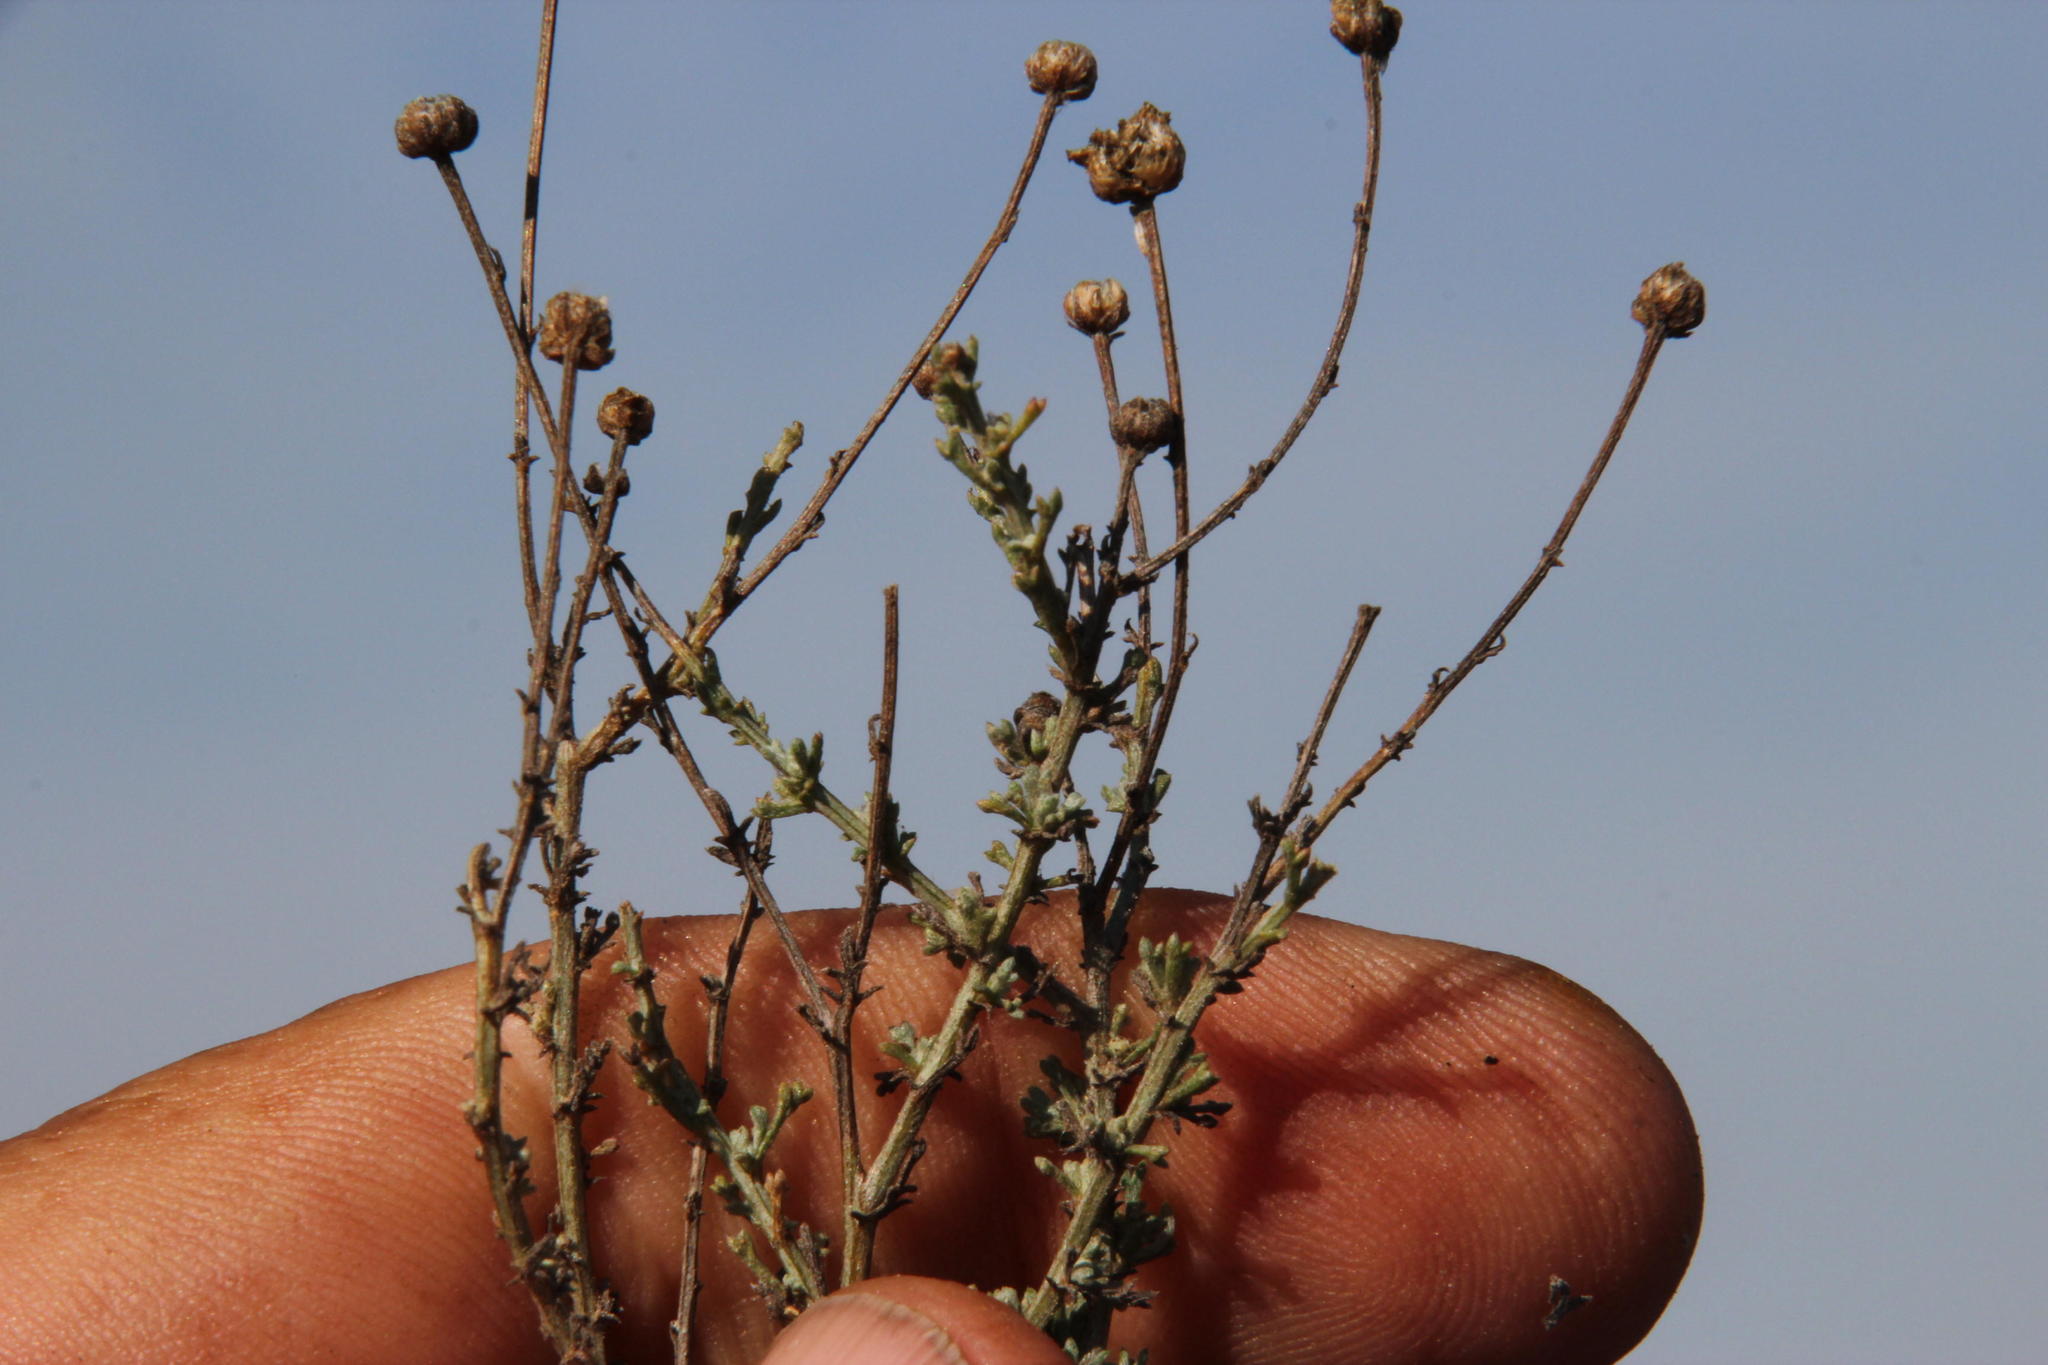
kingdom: Plantae
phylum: Tracheophyta
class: Magnoliopsida
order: Asterales
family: Asteraceae
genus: Pentzia
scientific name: Pentzia incana
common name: African sheepbush
